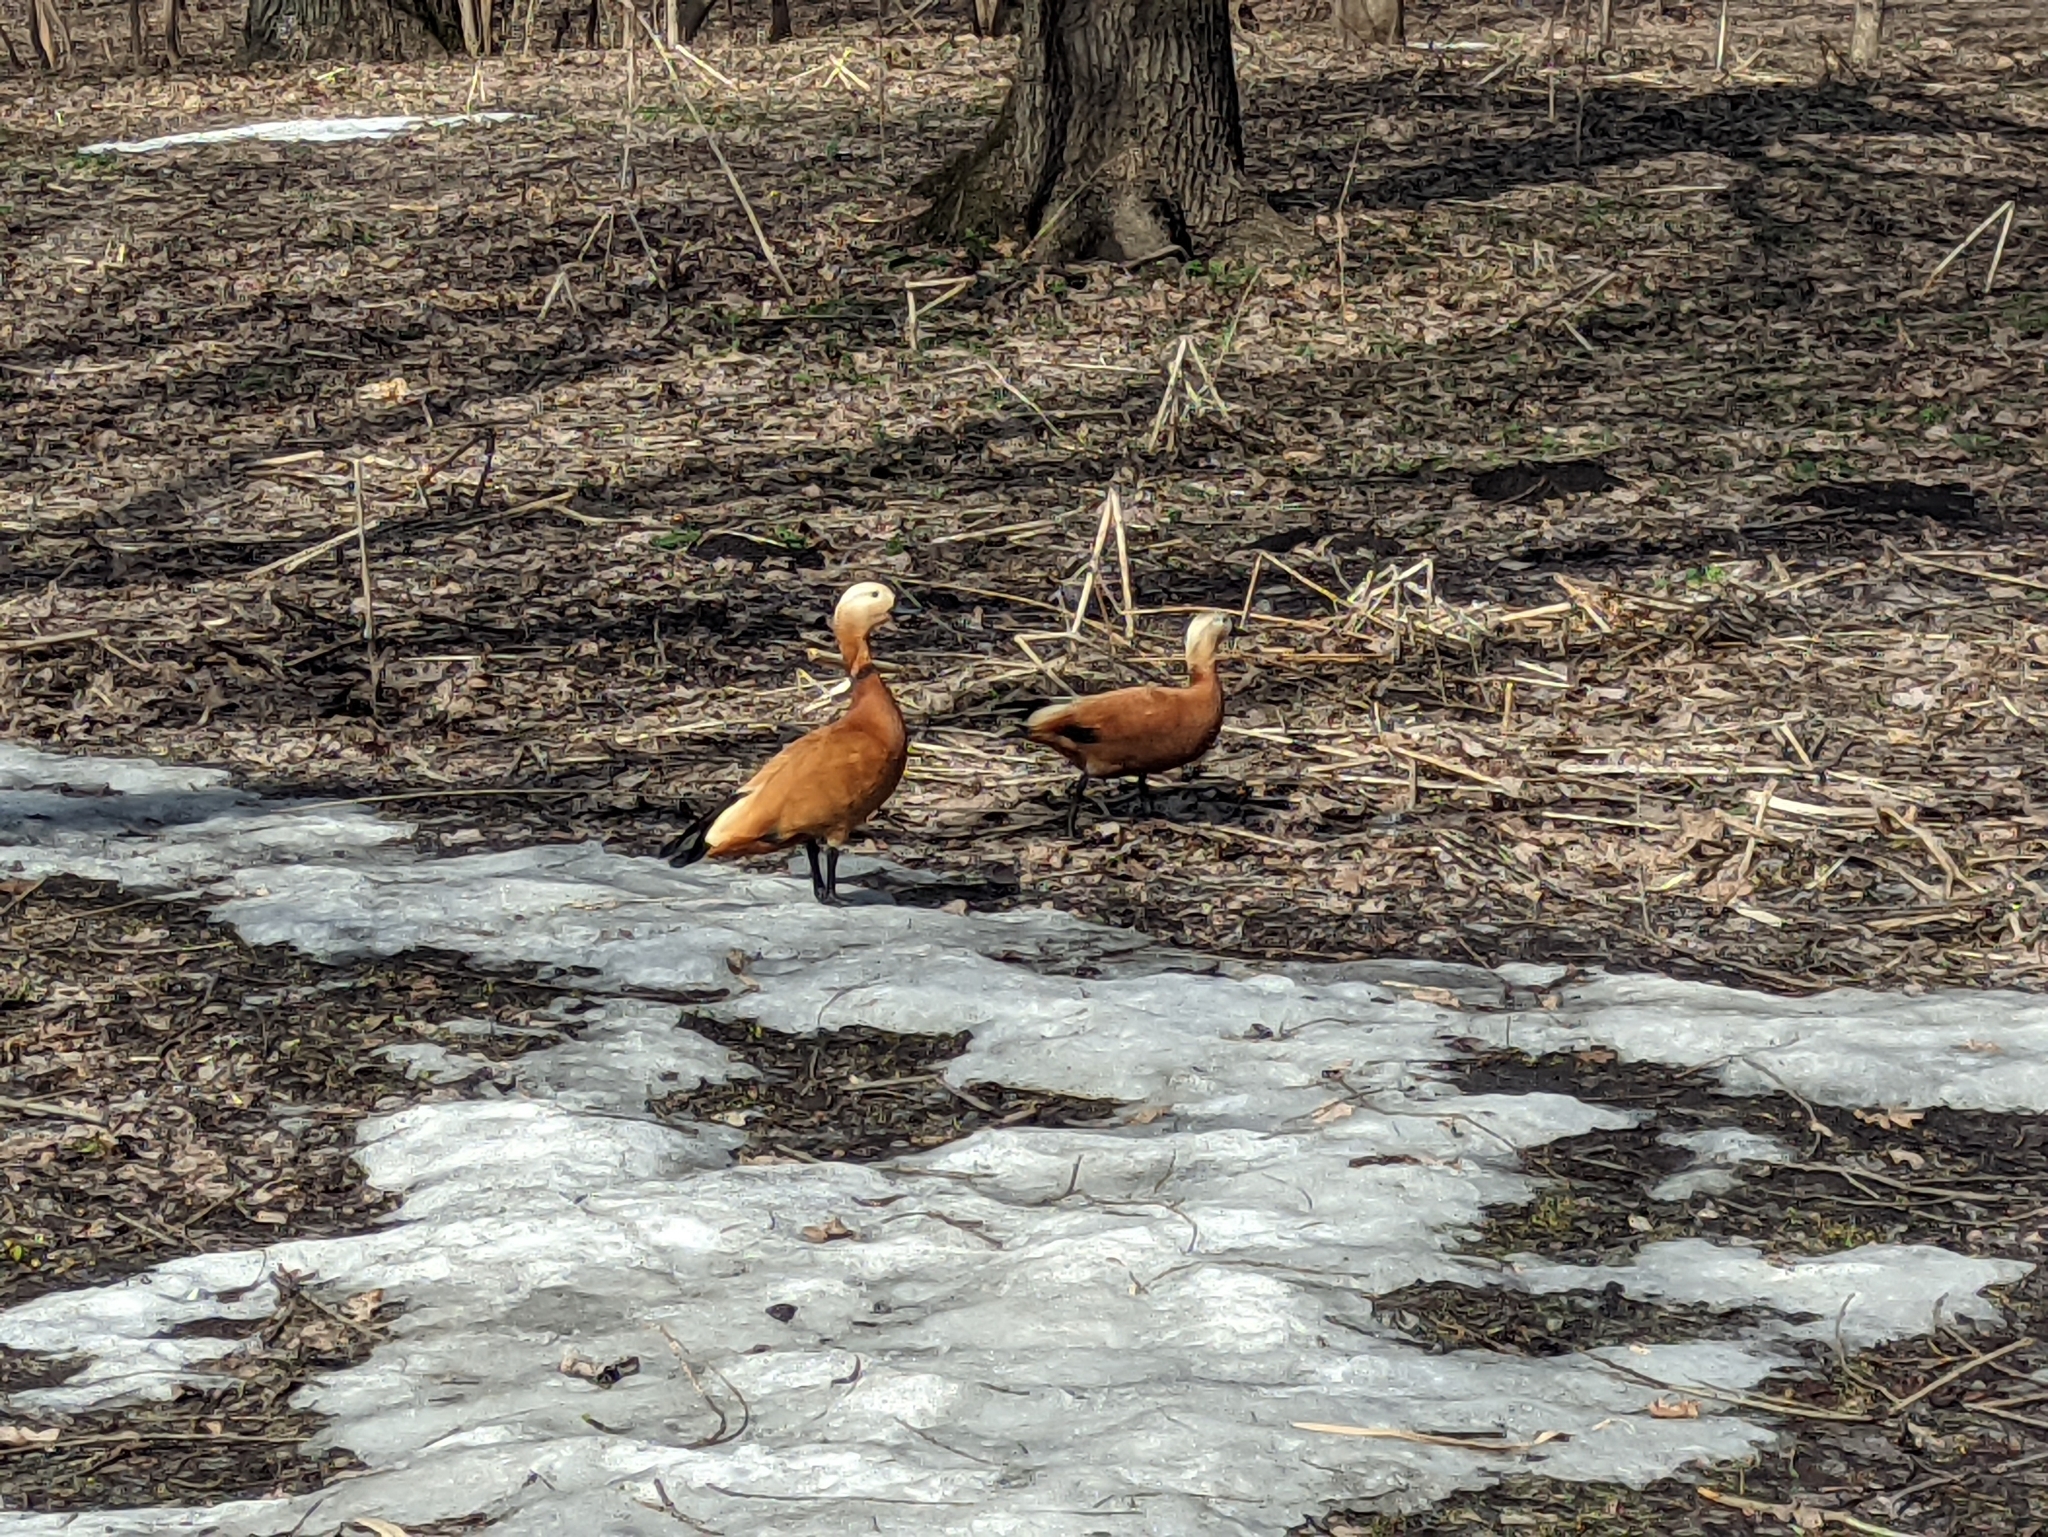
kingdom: Animalia
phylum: Chordata
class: Aves
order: Anseriformes
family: Anatidae
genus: Tadorna
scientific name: Tadorna ferruginea
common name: Ruddy shelduck
